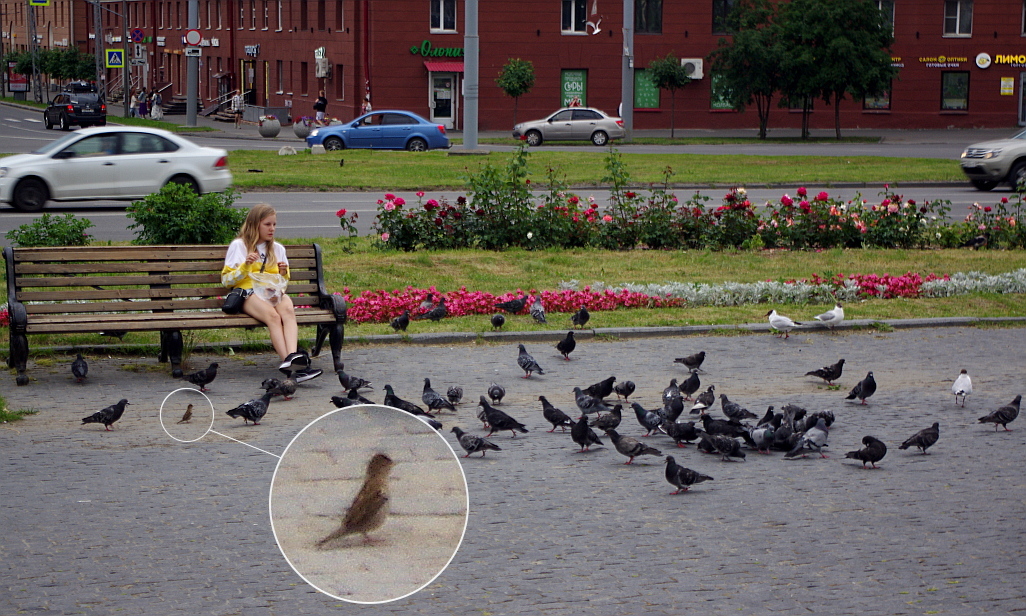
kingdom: Animalia
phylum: Chordata
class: Aves
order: Passeriformes
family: Passeridae
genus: Passer
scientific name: Passer domesticus
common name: House sparrow
